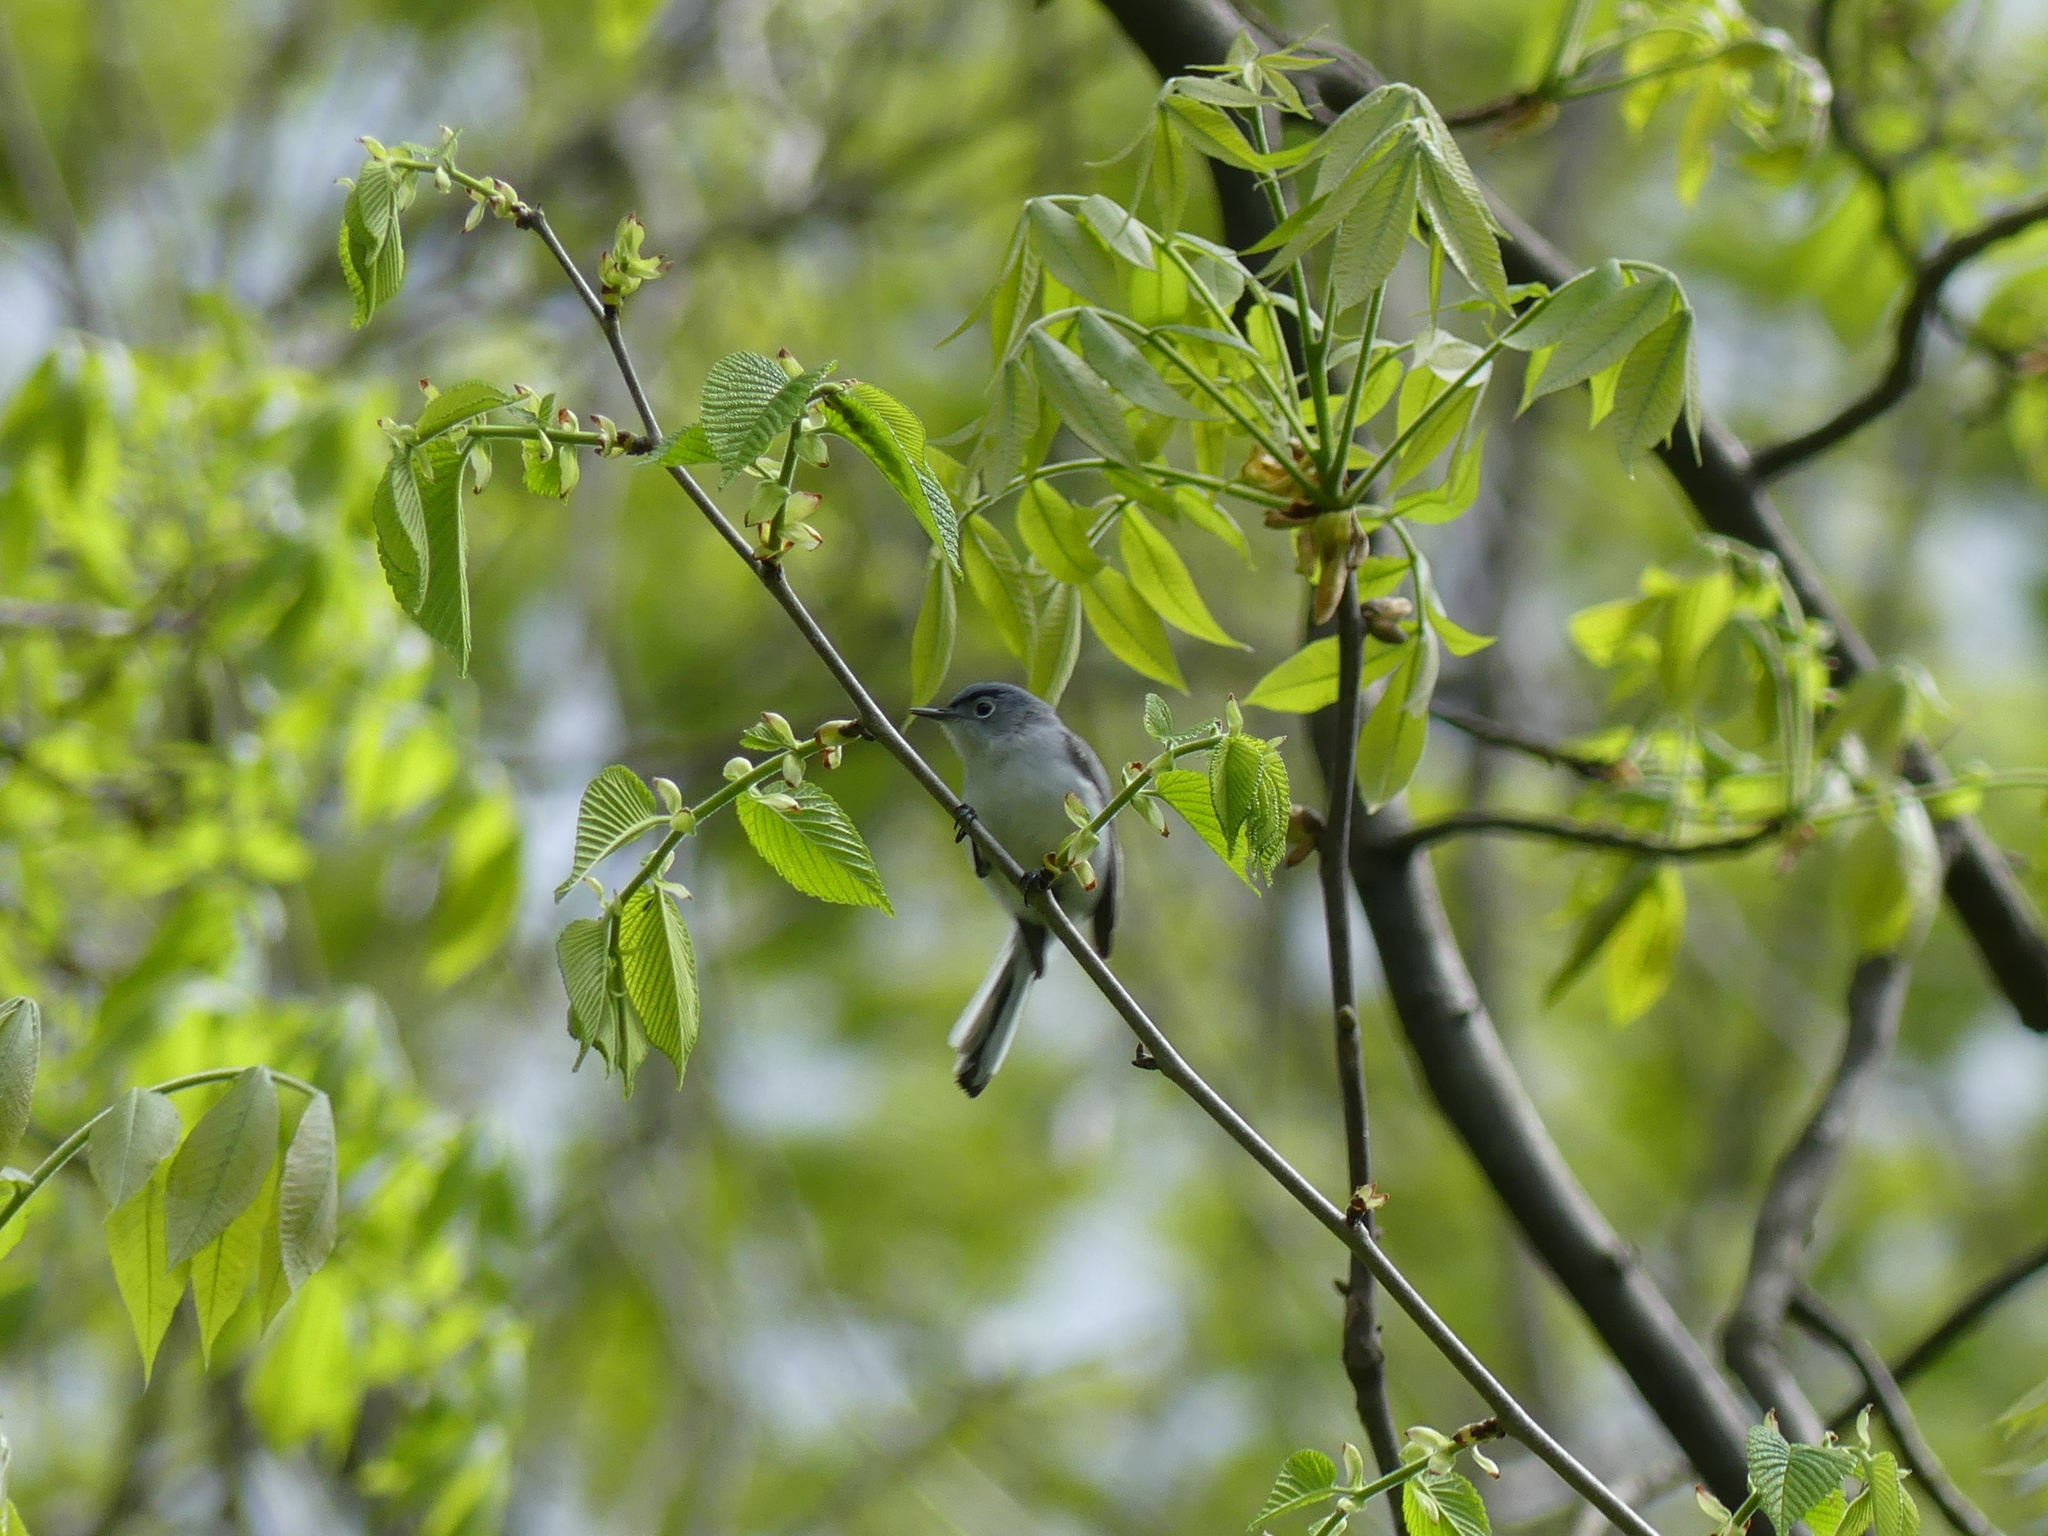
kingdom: Animalia
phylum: Chordata
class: Aves
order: Passeriformes
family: Polioptilidae
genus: Polioptila
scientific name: Polioptila caerulea
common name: Blue-gray gnatcatcher
